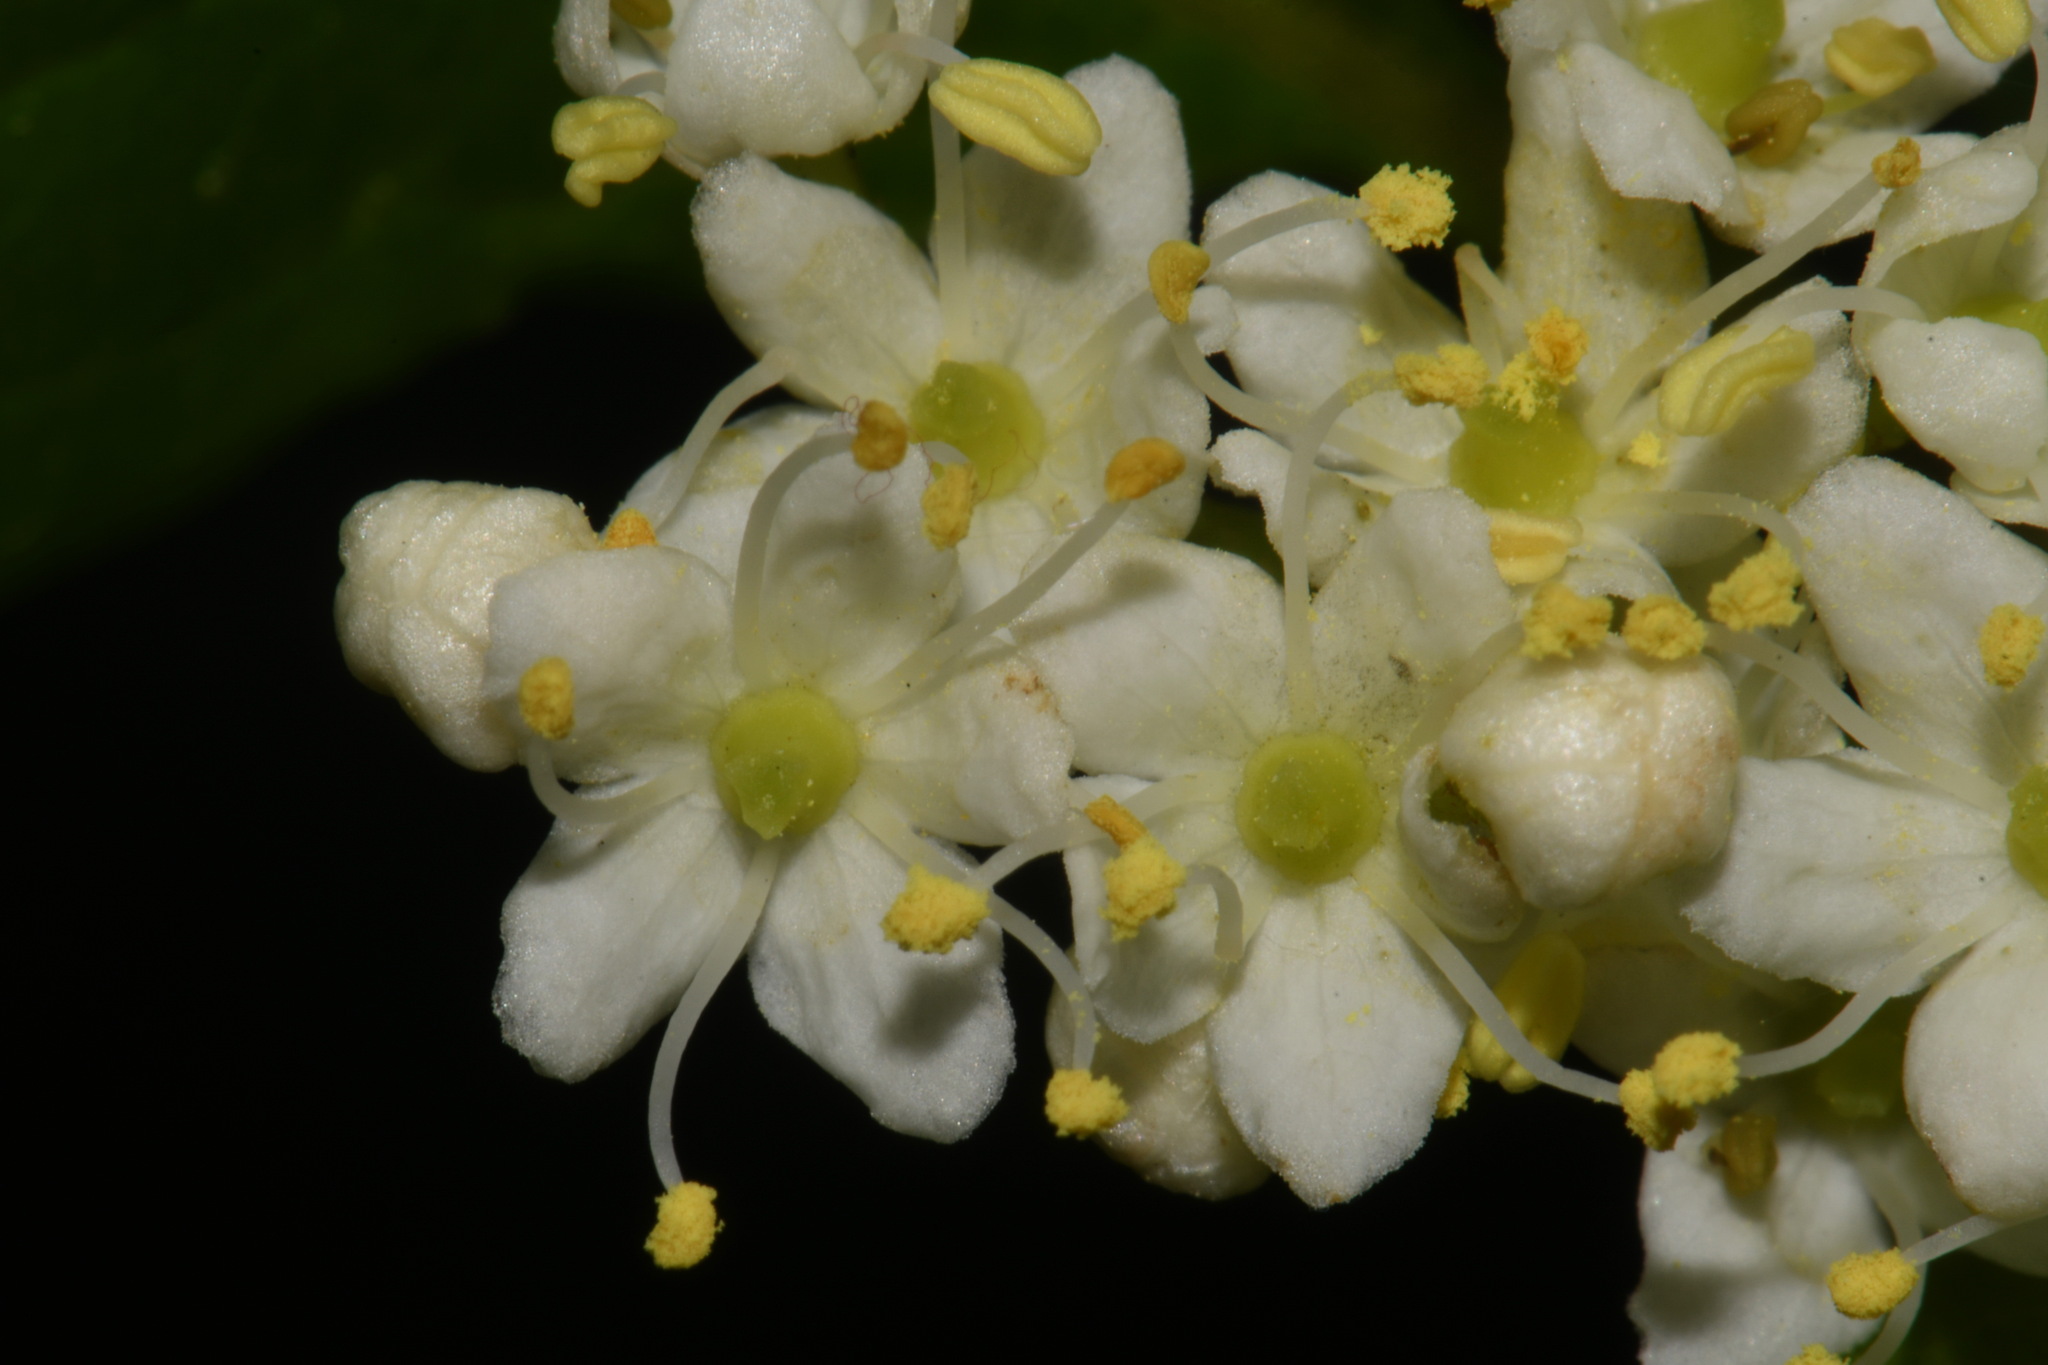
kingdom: Plantae
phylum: Tracheophyta
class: Magnoliopsida
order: Dipsacales
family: Viburnaceae
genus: Viburnum
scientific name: Viburnum lentago
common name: Black haw
